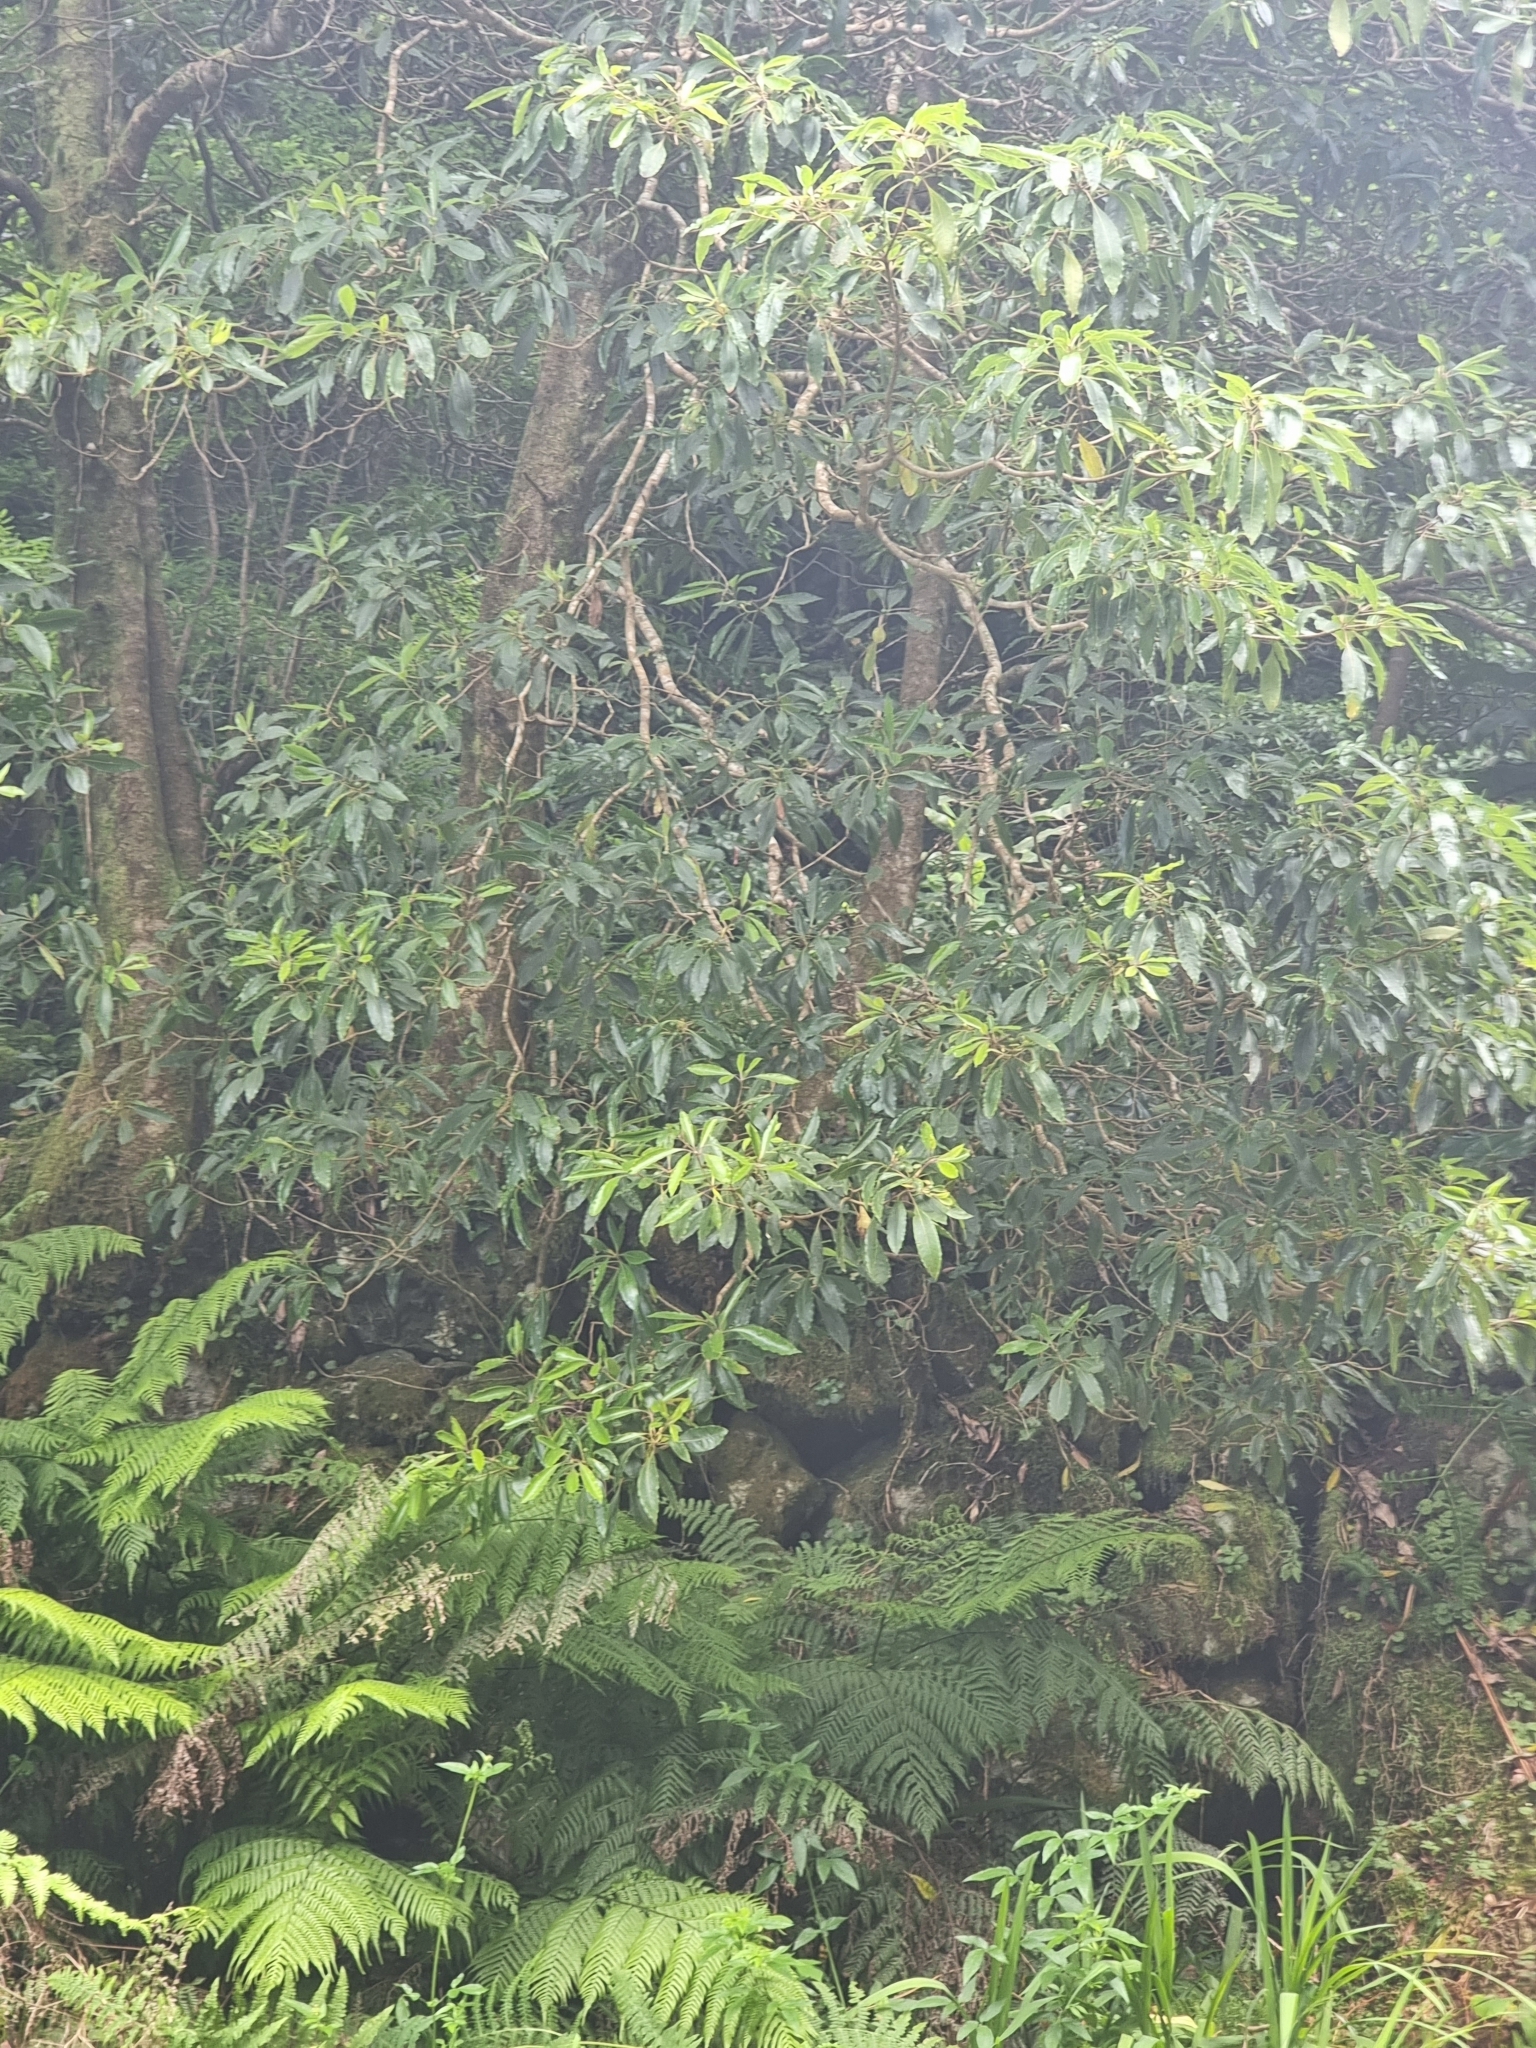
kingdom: Plantae
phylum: Tracheophyta
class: Magnoliopsida
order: Apiales
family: Pittosporaceae
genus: Pittosporum
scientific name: Pittosporum undulatum
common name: Australian cheesewood
